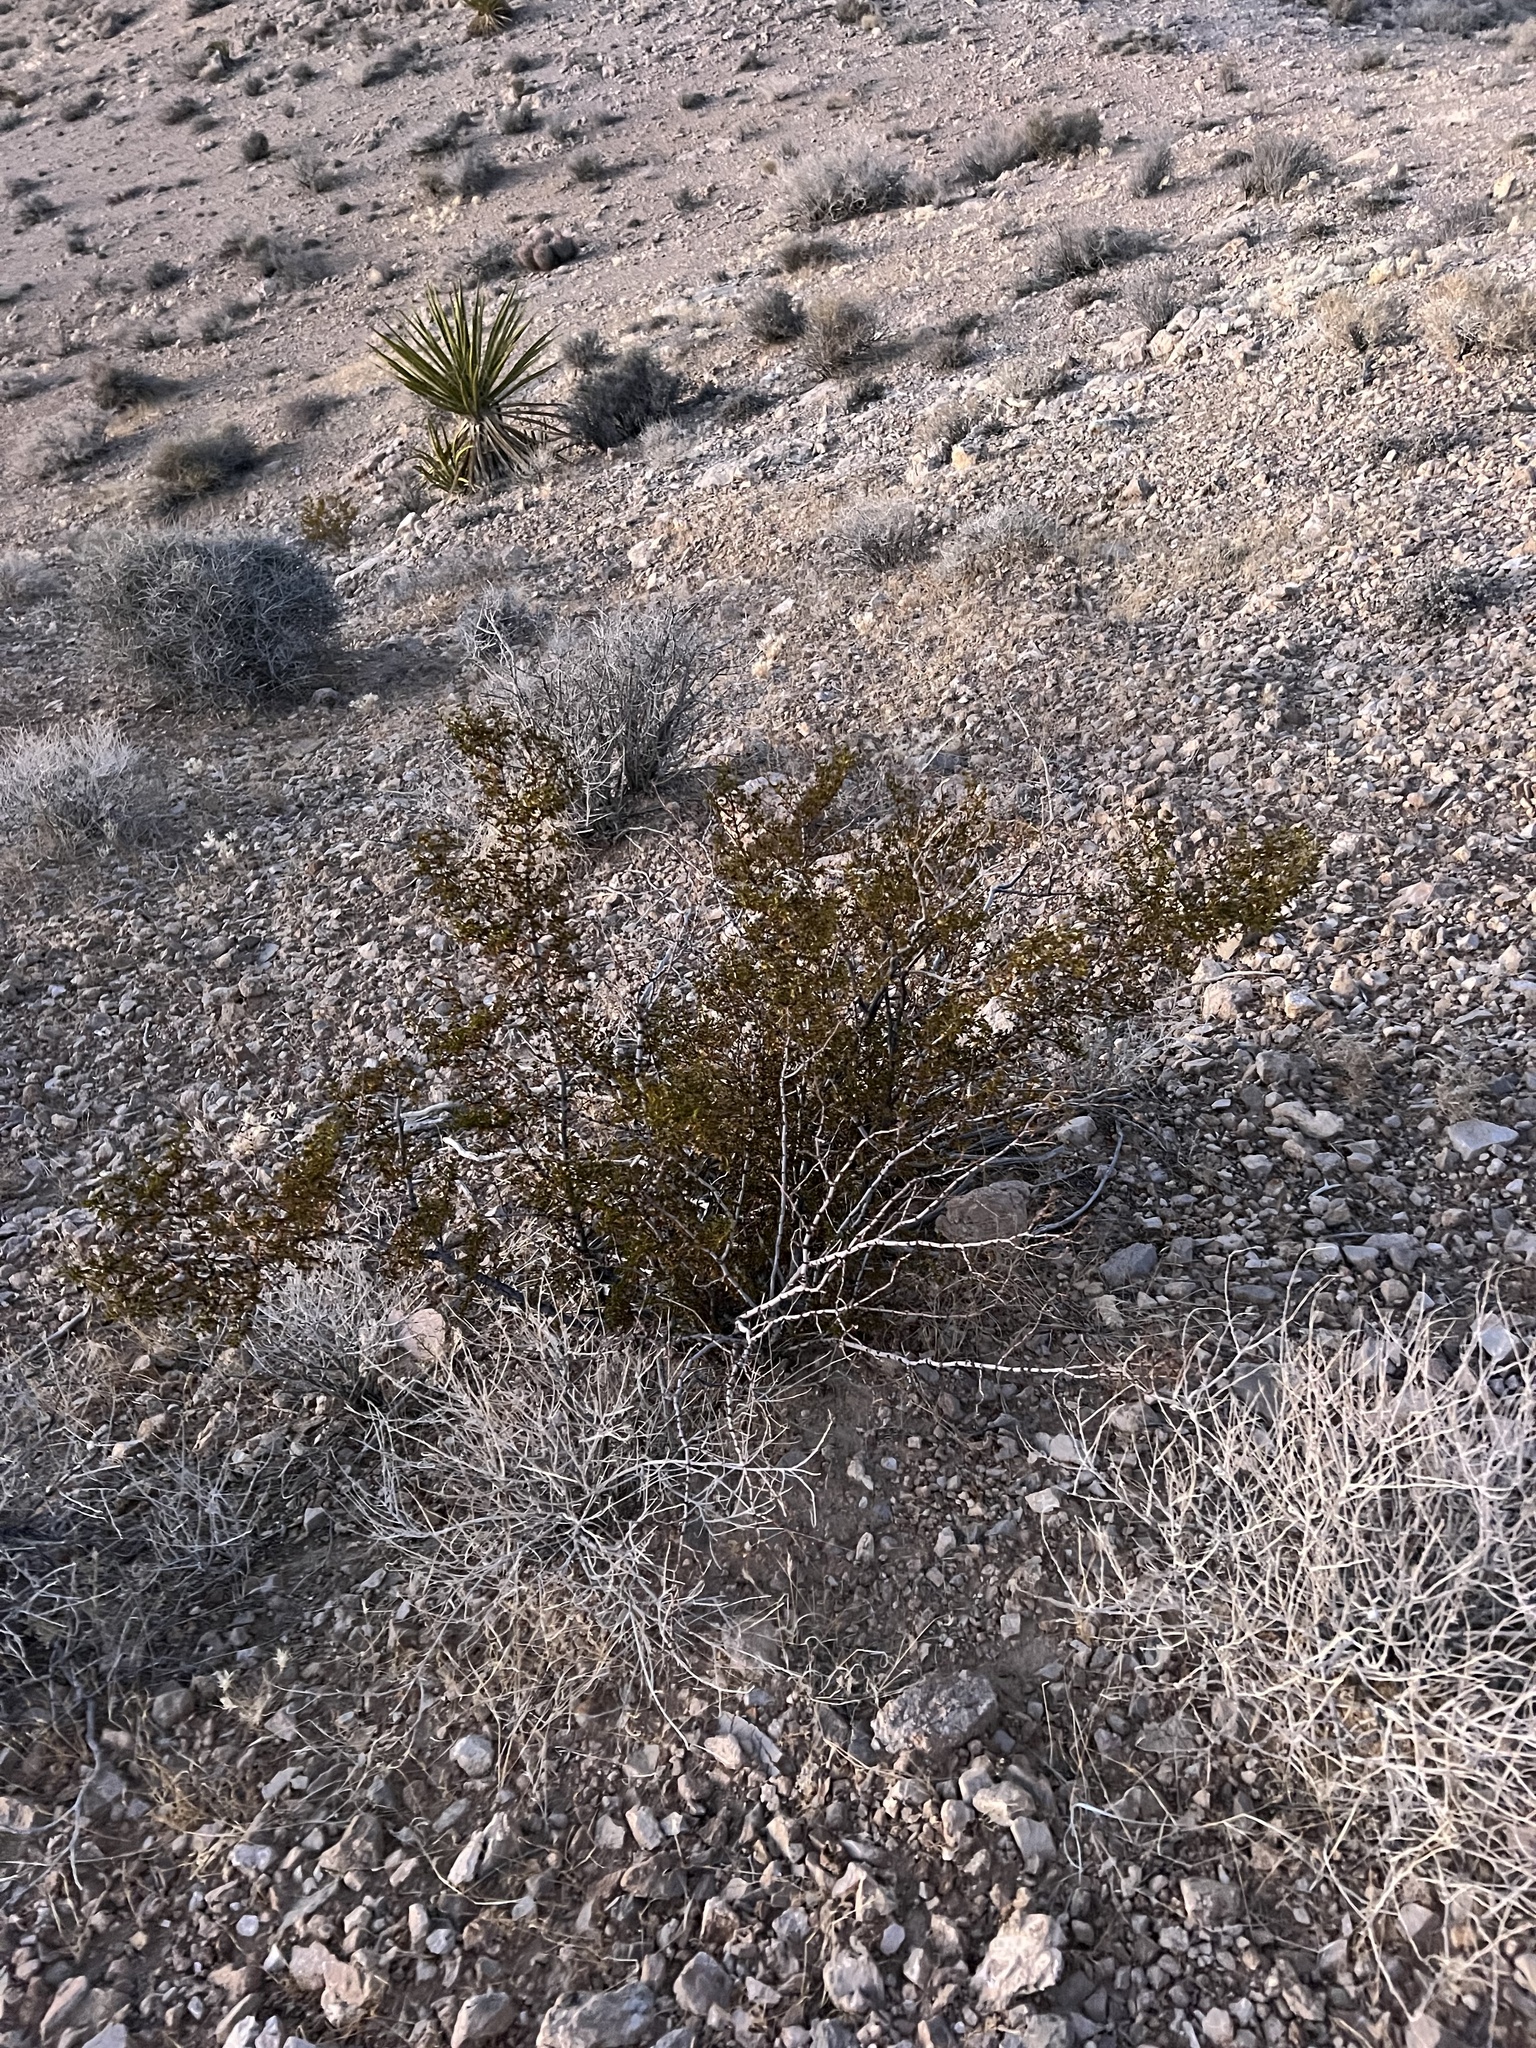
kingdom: Plantae
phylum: Tracheophyta
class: Magnoliopsida
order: Zygophyllales
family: Zygophyllaceae
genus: Larrea
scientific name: Larrea tridentata
